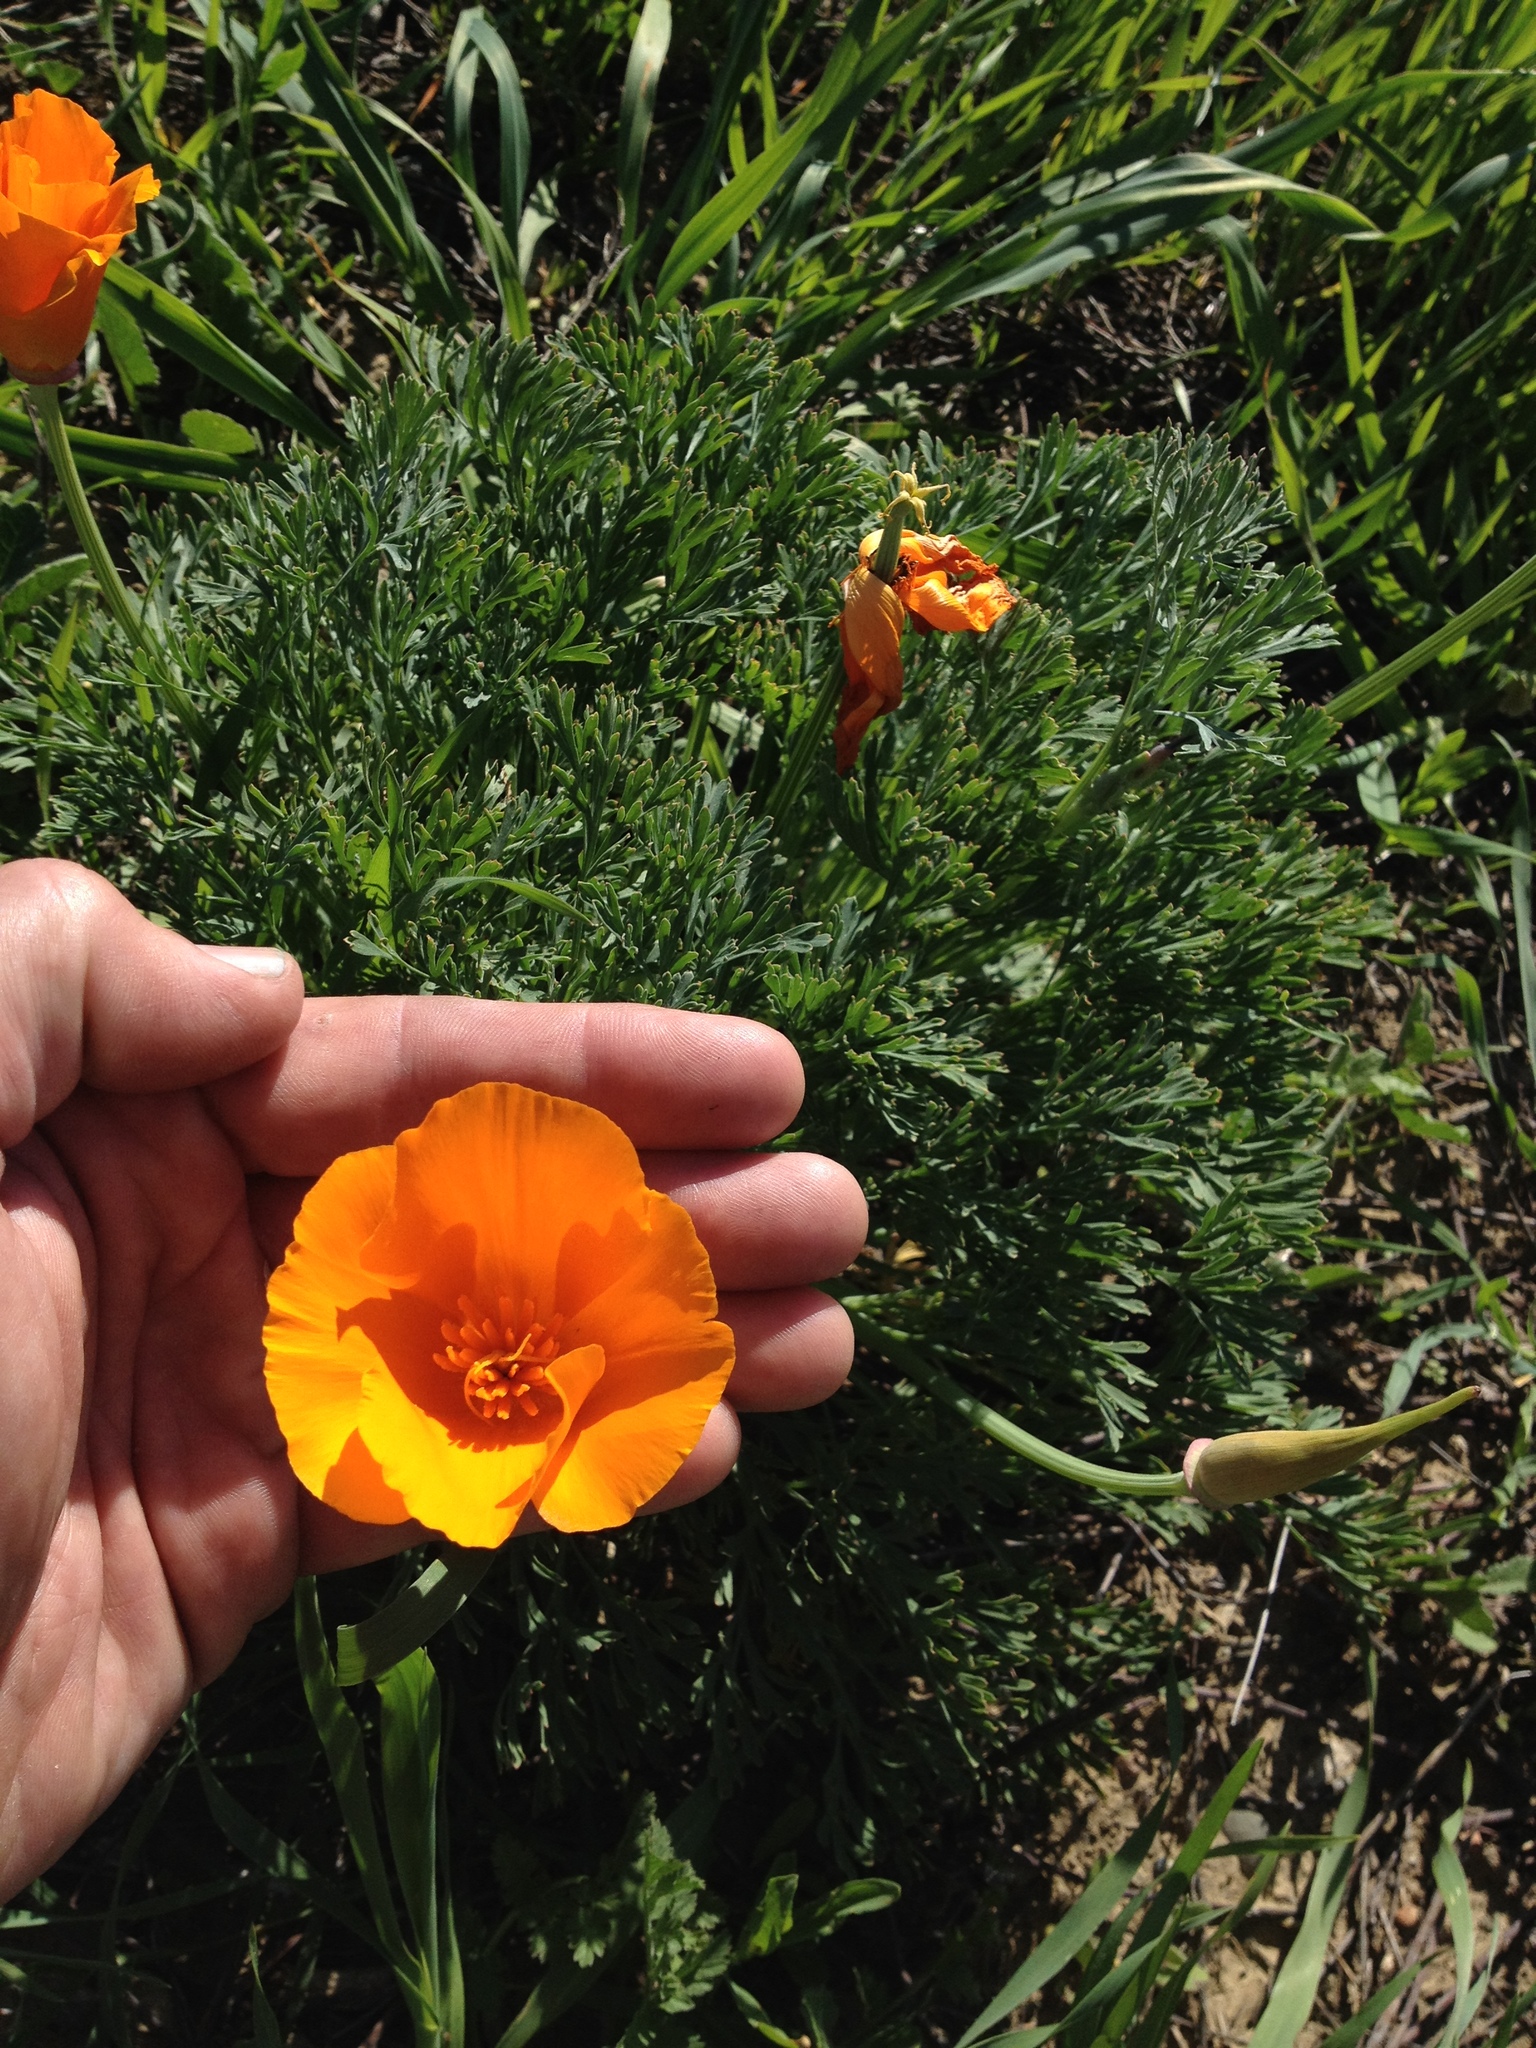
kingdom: Plantae
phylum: Tracheophyta
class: Magnoliopsida
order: Ranunculales
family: Papaveraceae
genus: Eschscholzia
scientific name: Eschscholzia californica
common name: California poppy
